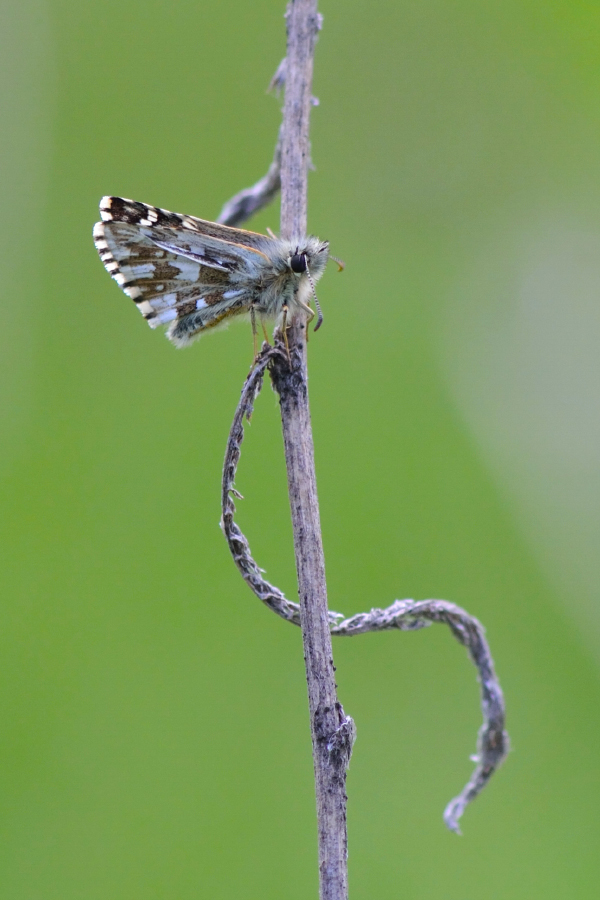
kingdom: Animalia
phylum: Arthropoda
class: Insecta
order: Lepidoptera
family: Hesperiidae
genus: Pyrgus
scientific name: Pyrgus malvae
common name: Grizzled skipper
